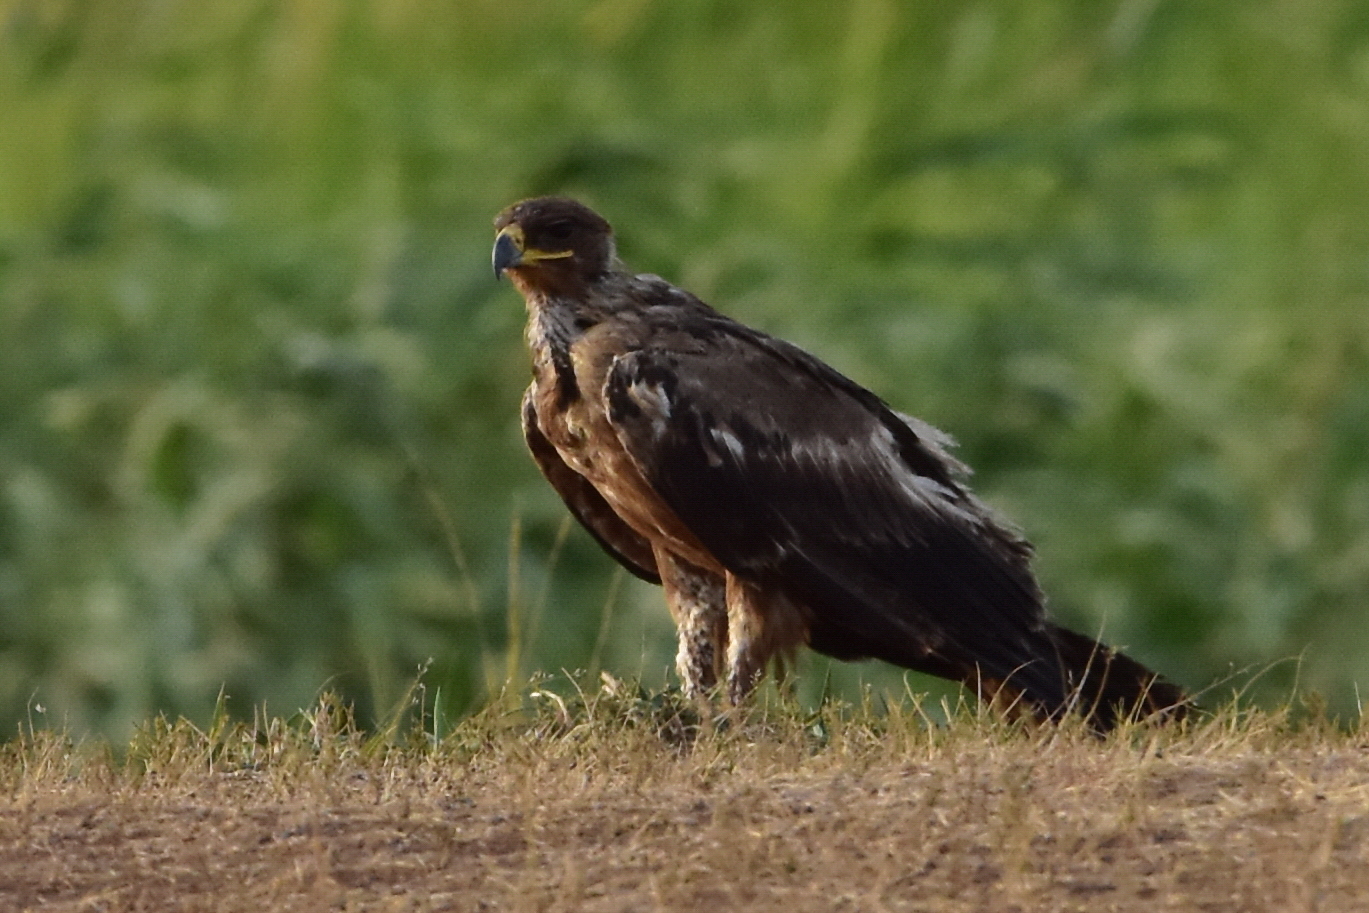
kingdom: Animalia
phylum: Chordata
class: Aves
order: Accipitriformes
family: Accipitridae
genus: Aquila
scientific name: Aquila nipalensis
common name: Steppe eagle
